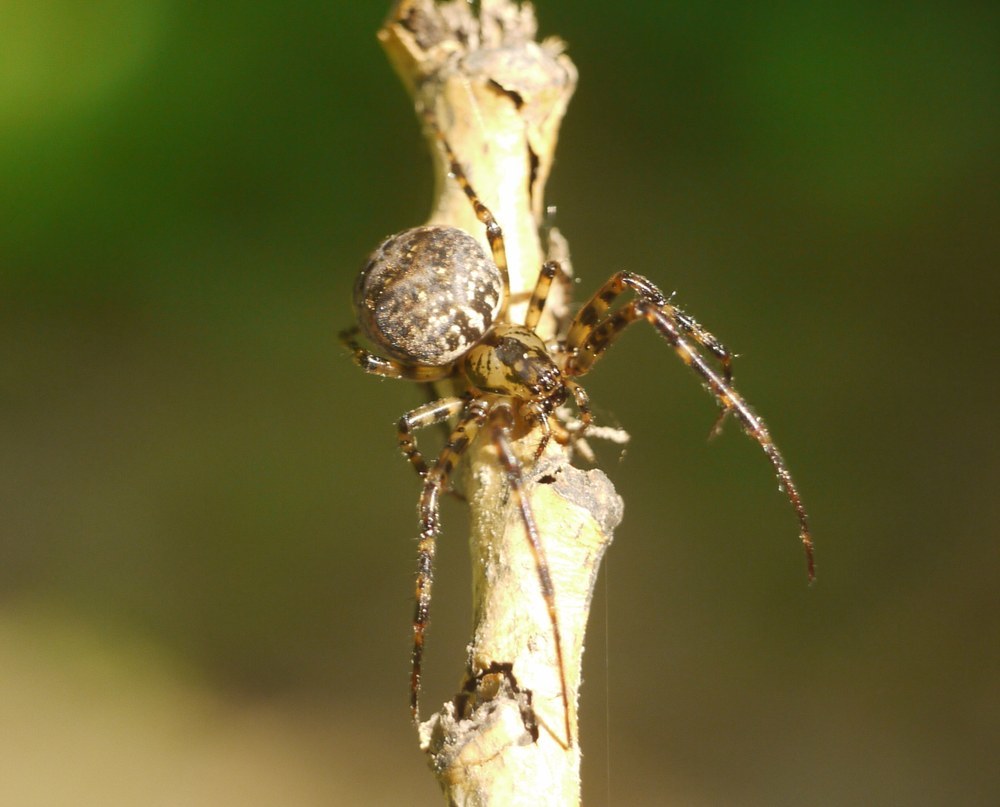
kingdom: Animalia
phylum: Arthropoda
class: Arachnida
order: Araneae
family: Tetragnathidae
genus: Metellina
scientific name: Metellina merianae
